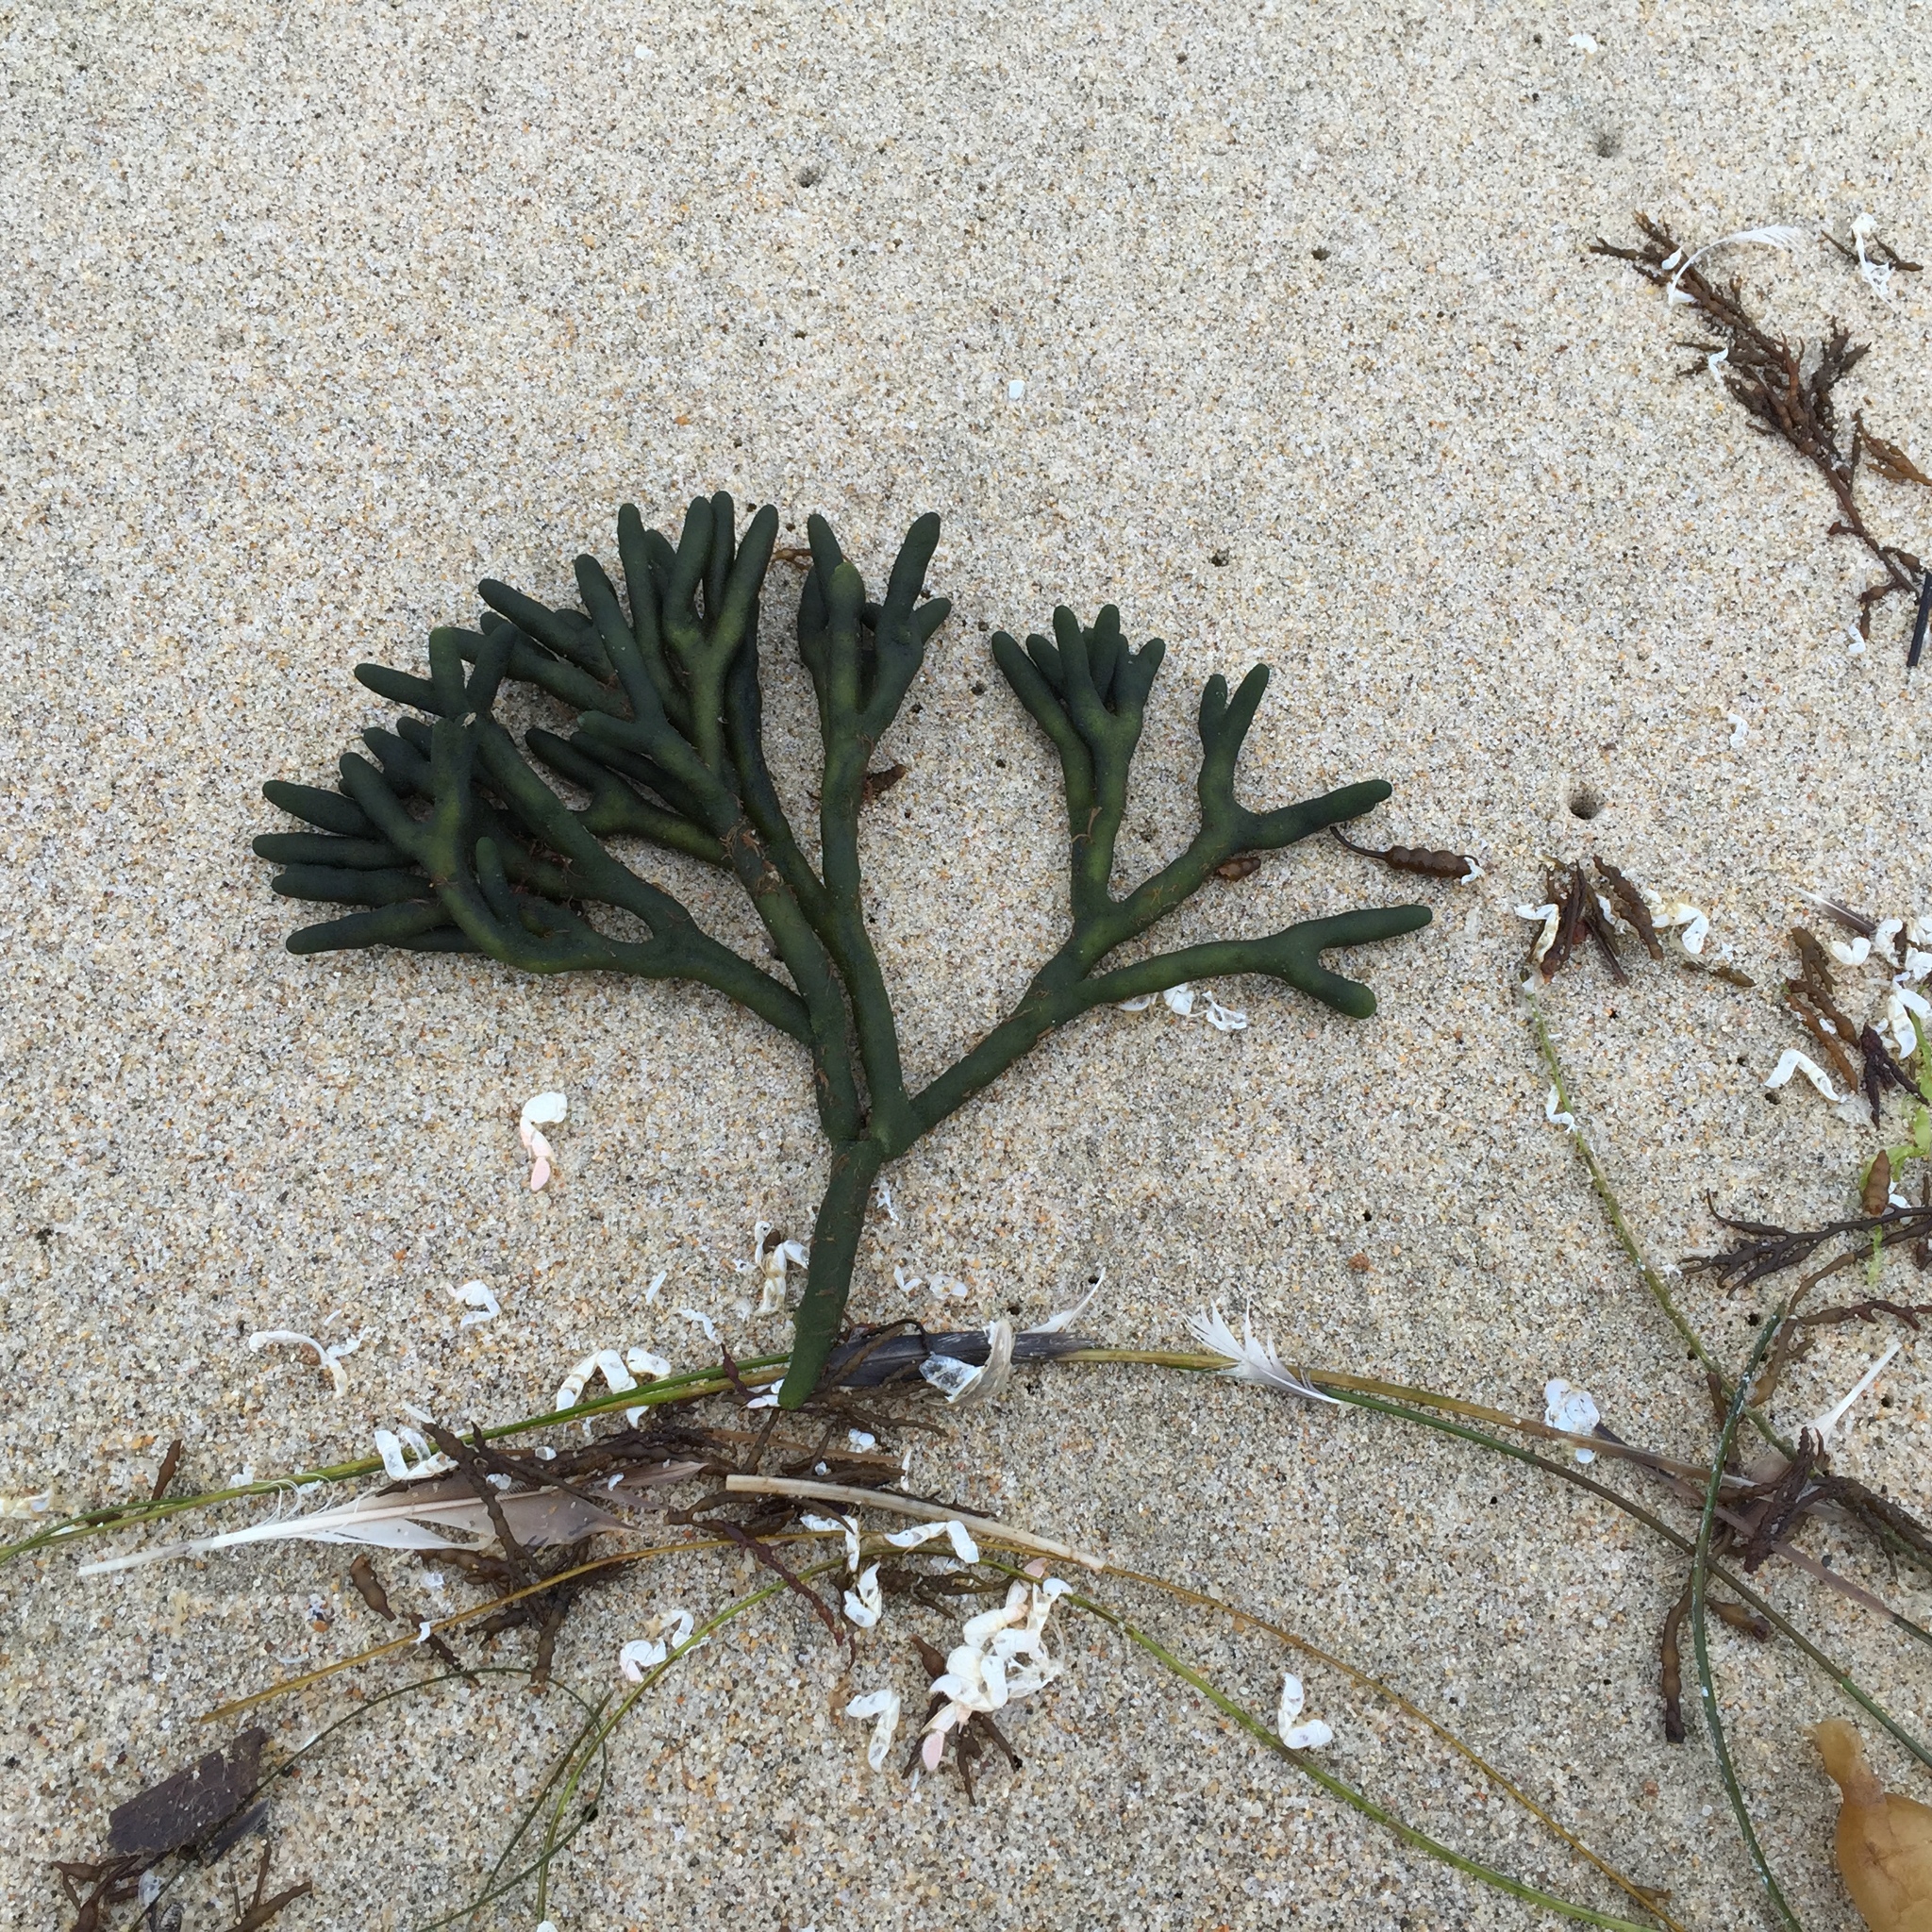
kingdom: Plantae
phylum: Chlorophyta
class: Ulvophyceae
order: Bryopsidales
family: Codiaceae
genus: Codium
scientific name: Codium fragile
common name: Dead man's fingers
